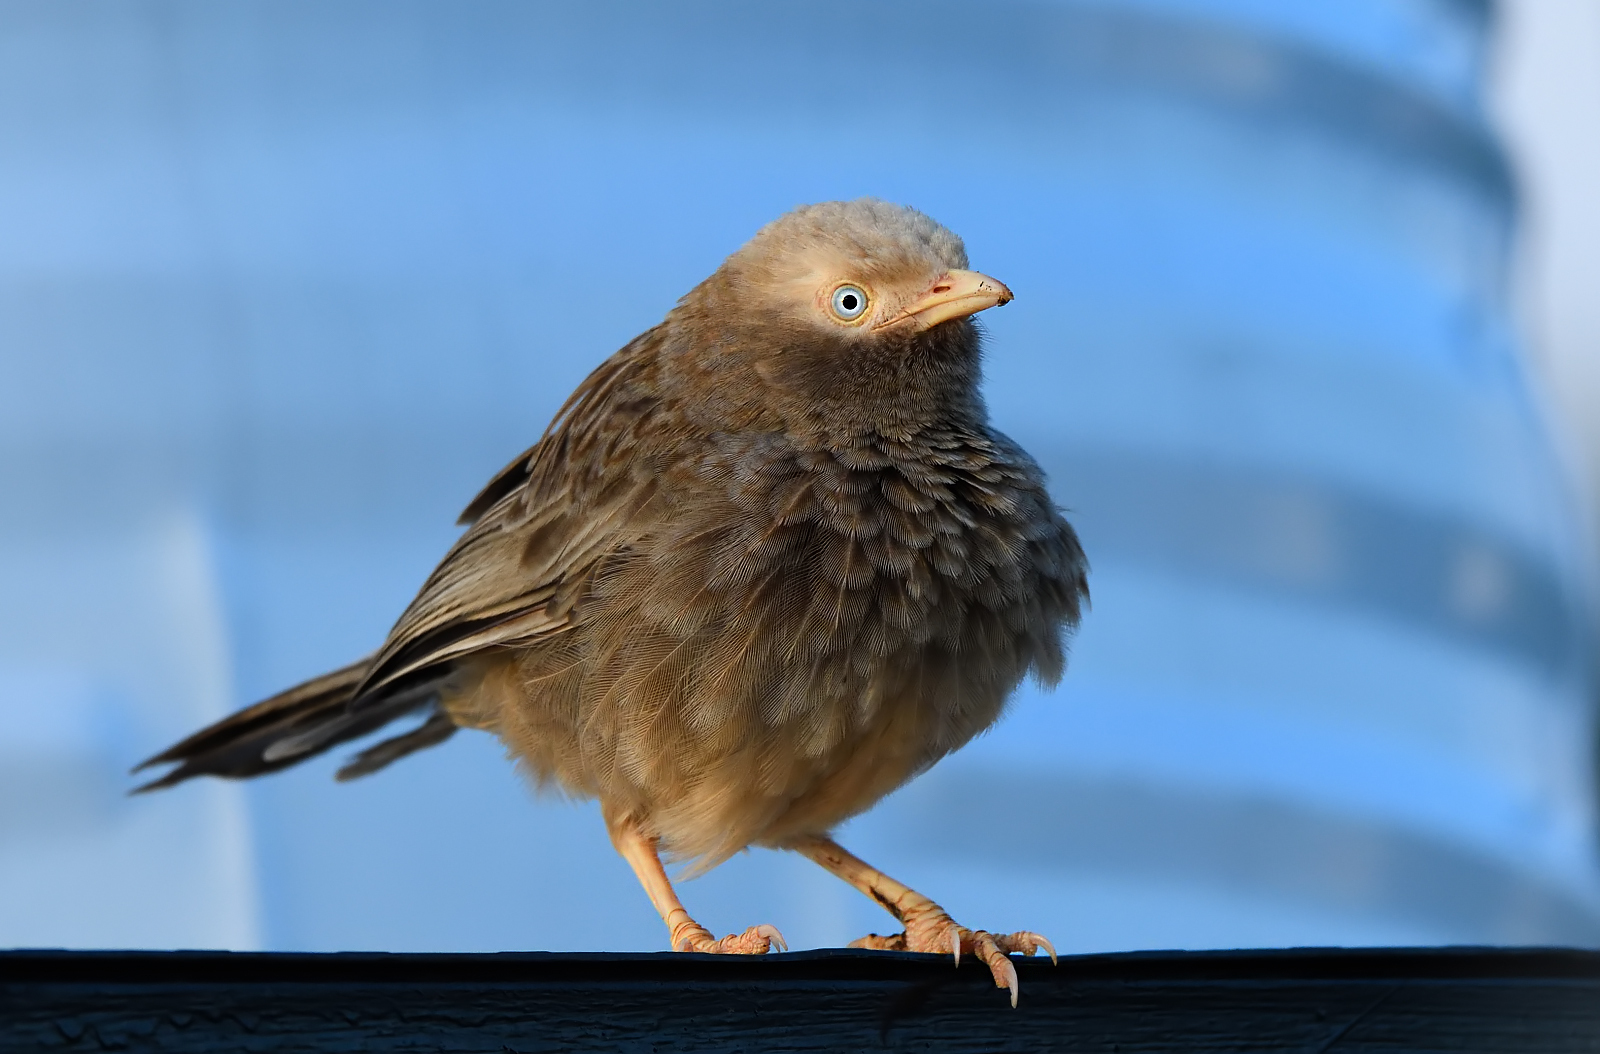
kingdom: Animalia
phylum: Chordata
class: Aves
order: Passeriformes
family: Leiothrichidae
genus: Turdoides
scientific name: Turdoides affinis
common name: Yellow-billed babbler
